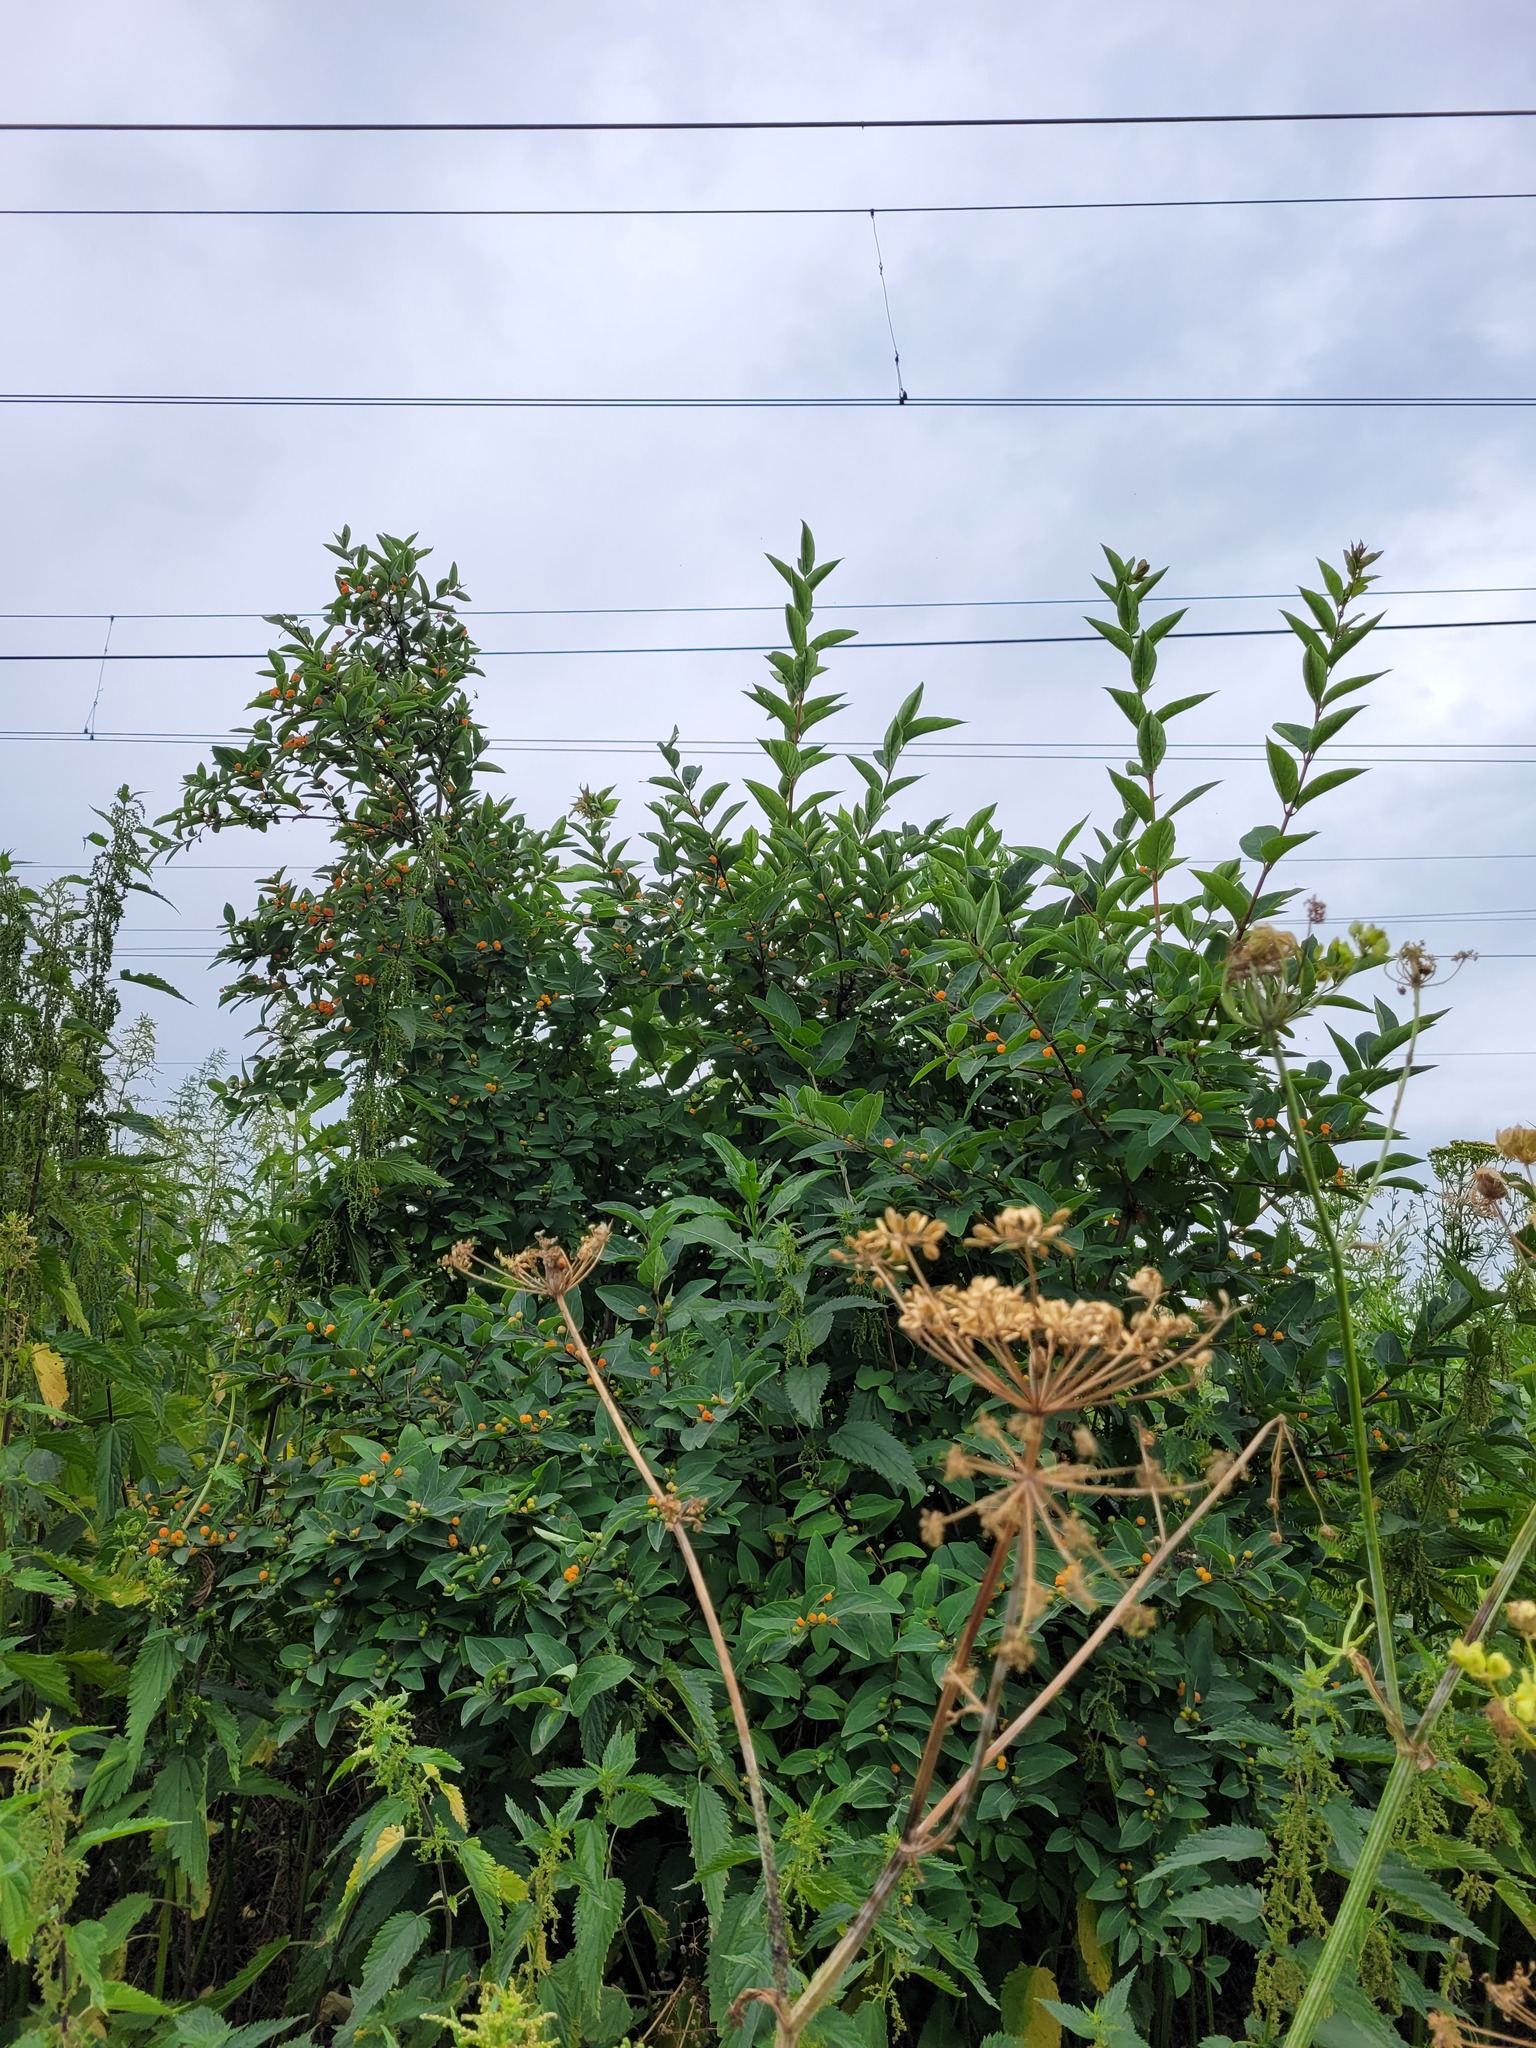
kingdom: Plantae
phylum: Tracheophyta
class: Magnoliopsida
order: Dipsacales
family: Caprifoliaceae
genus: Lonicera
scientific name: Lonicera tatarica
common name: Tatarian honeysuckle
